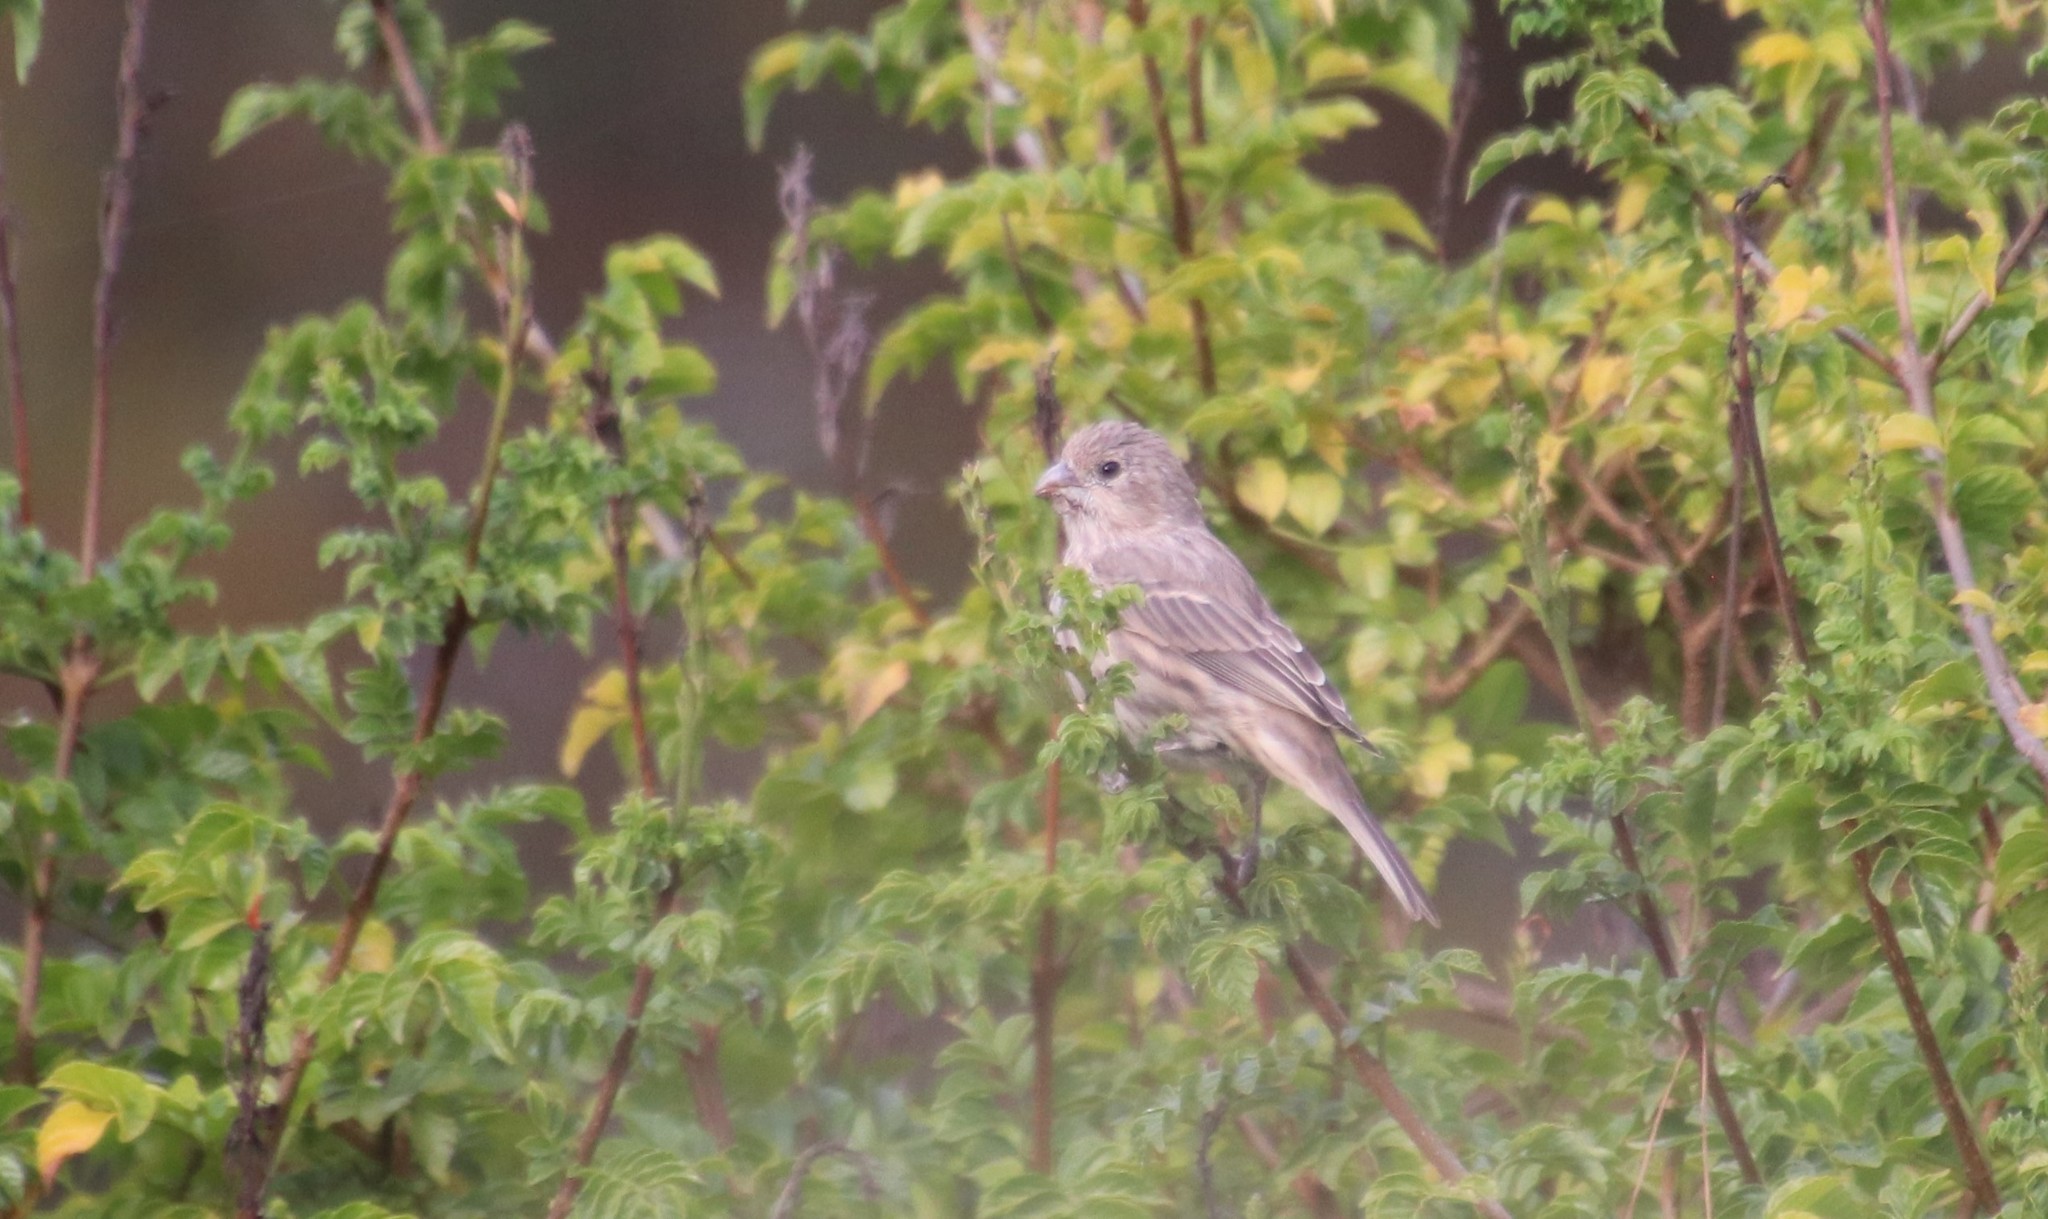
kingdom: Animalia
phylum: Chordata
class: Aves
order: Passeriformes
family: Fringillidae
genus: Haemorhous
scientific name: Haemorhous mexicanus
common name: House finch
